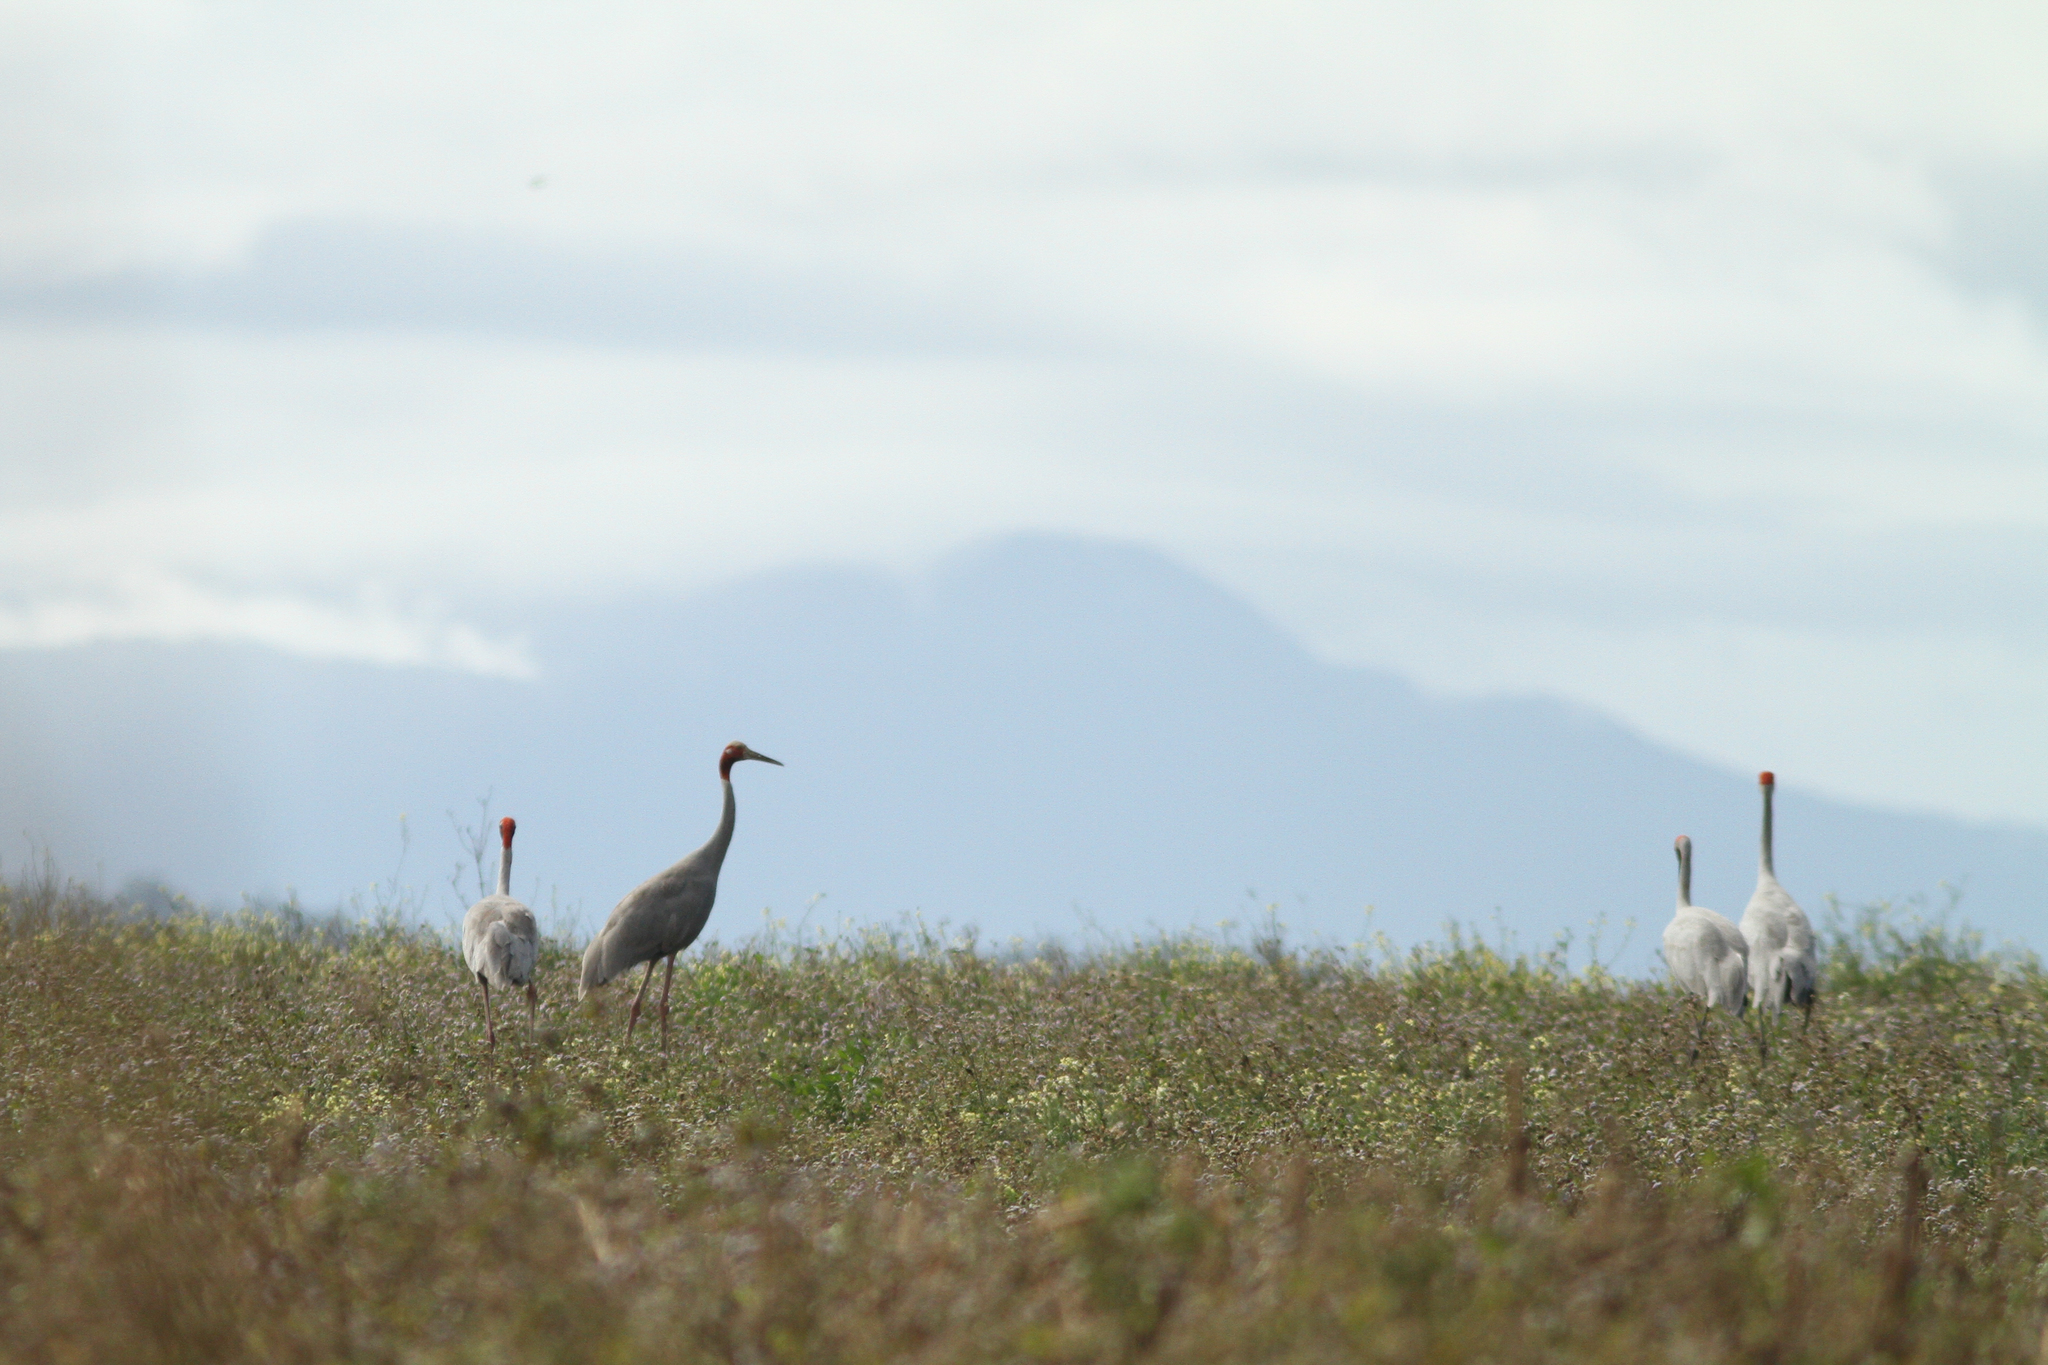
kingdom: Animalia
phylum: Chordata
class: Aves
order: Gruiformes
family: Gruidae
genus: Grus
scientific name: Grus antigone
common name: Sarus crane
